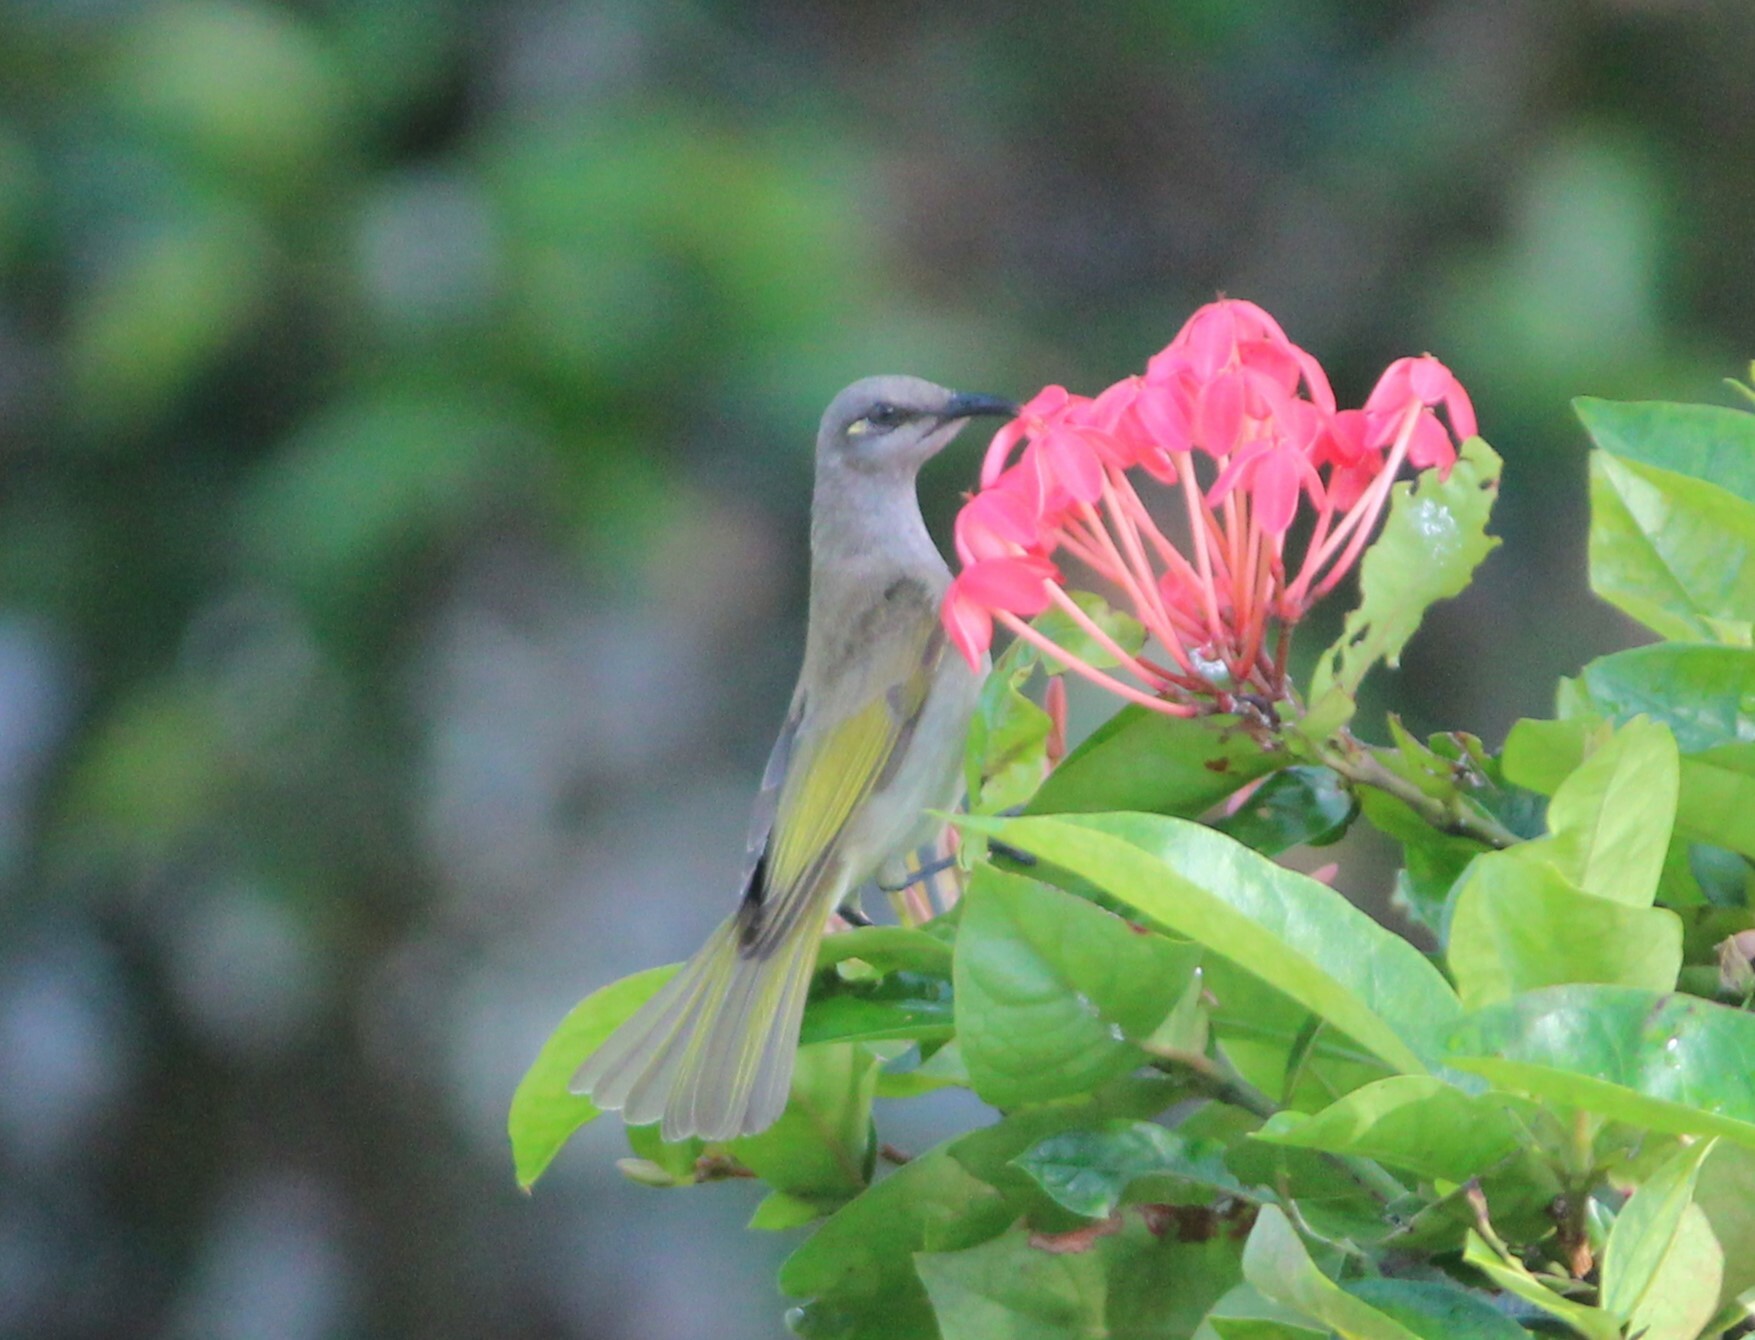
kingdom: Animalia
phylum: Chordata
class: Aves
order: Passeriformes
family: Meliphagidae
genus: Lichmera
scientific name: Lichmera indistincta
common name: Brown honeyeater
